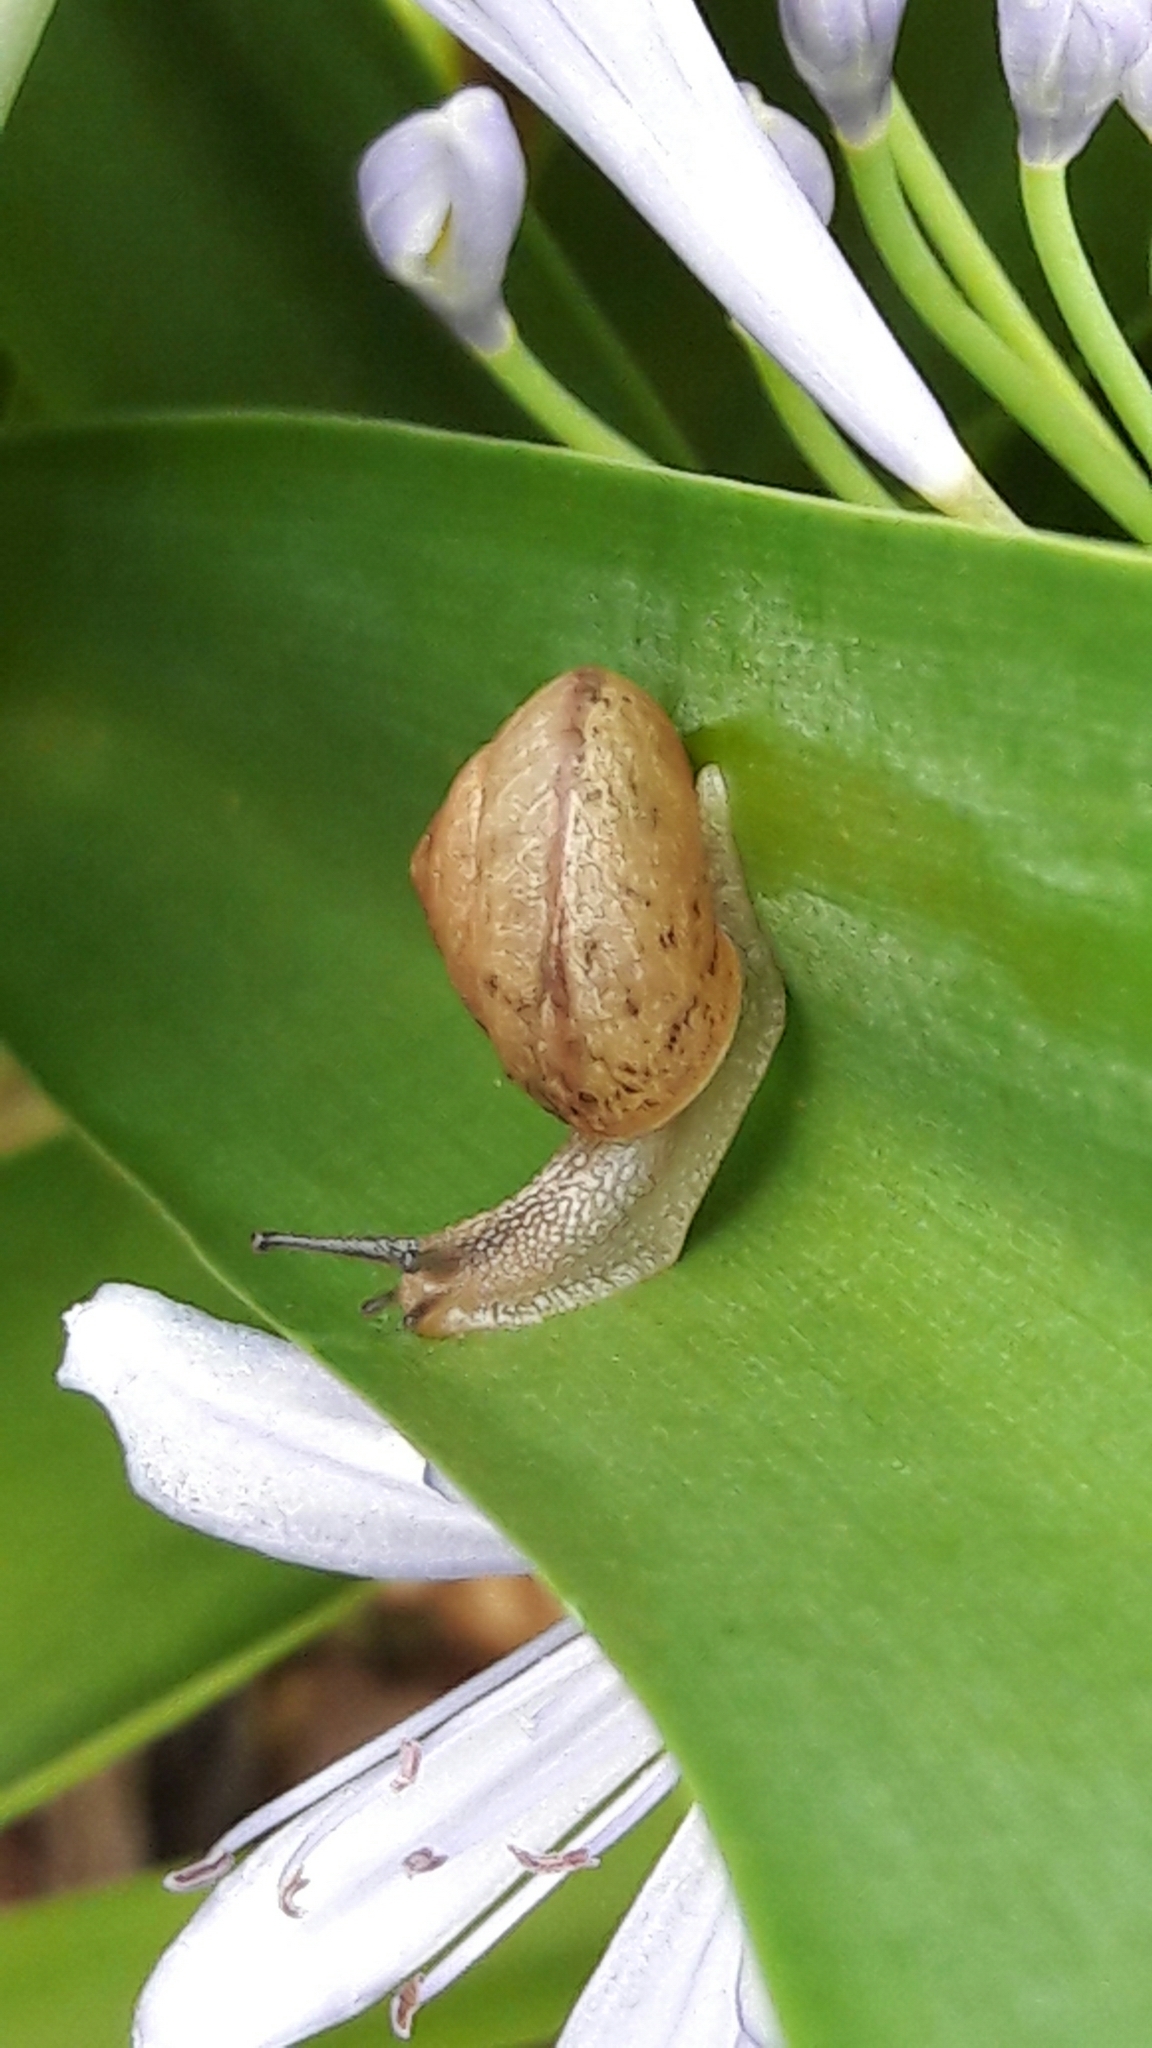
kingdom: Animalia
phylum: Mollusca
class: Gastropoda
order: Stylommatophora
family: Camaenidae
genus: Bradybaena
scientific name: Bradybaena similaris
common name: Asian trampsnail
